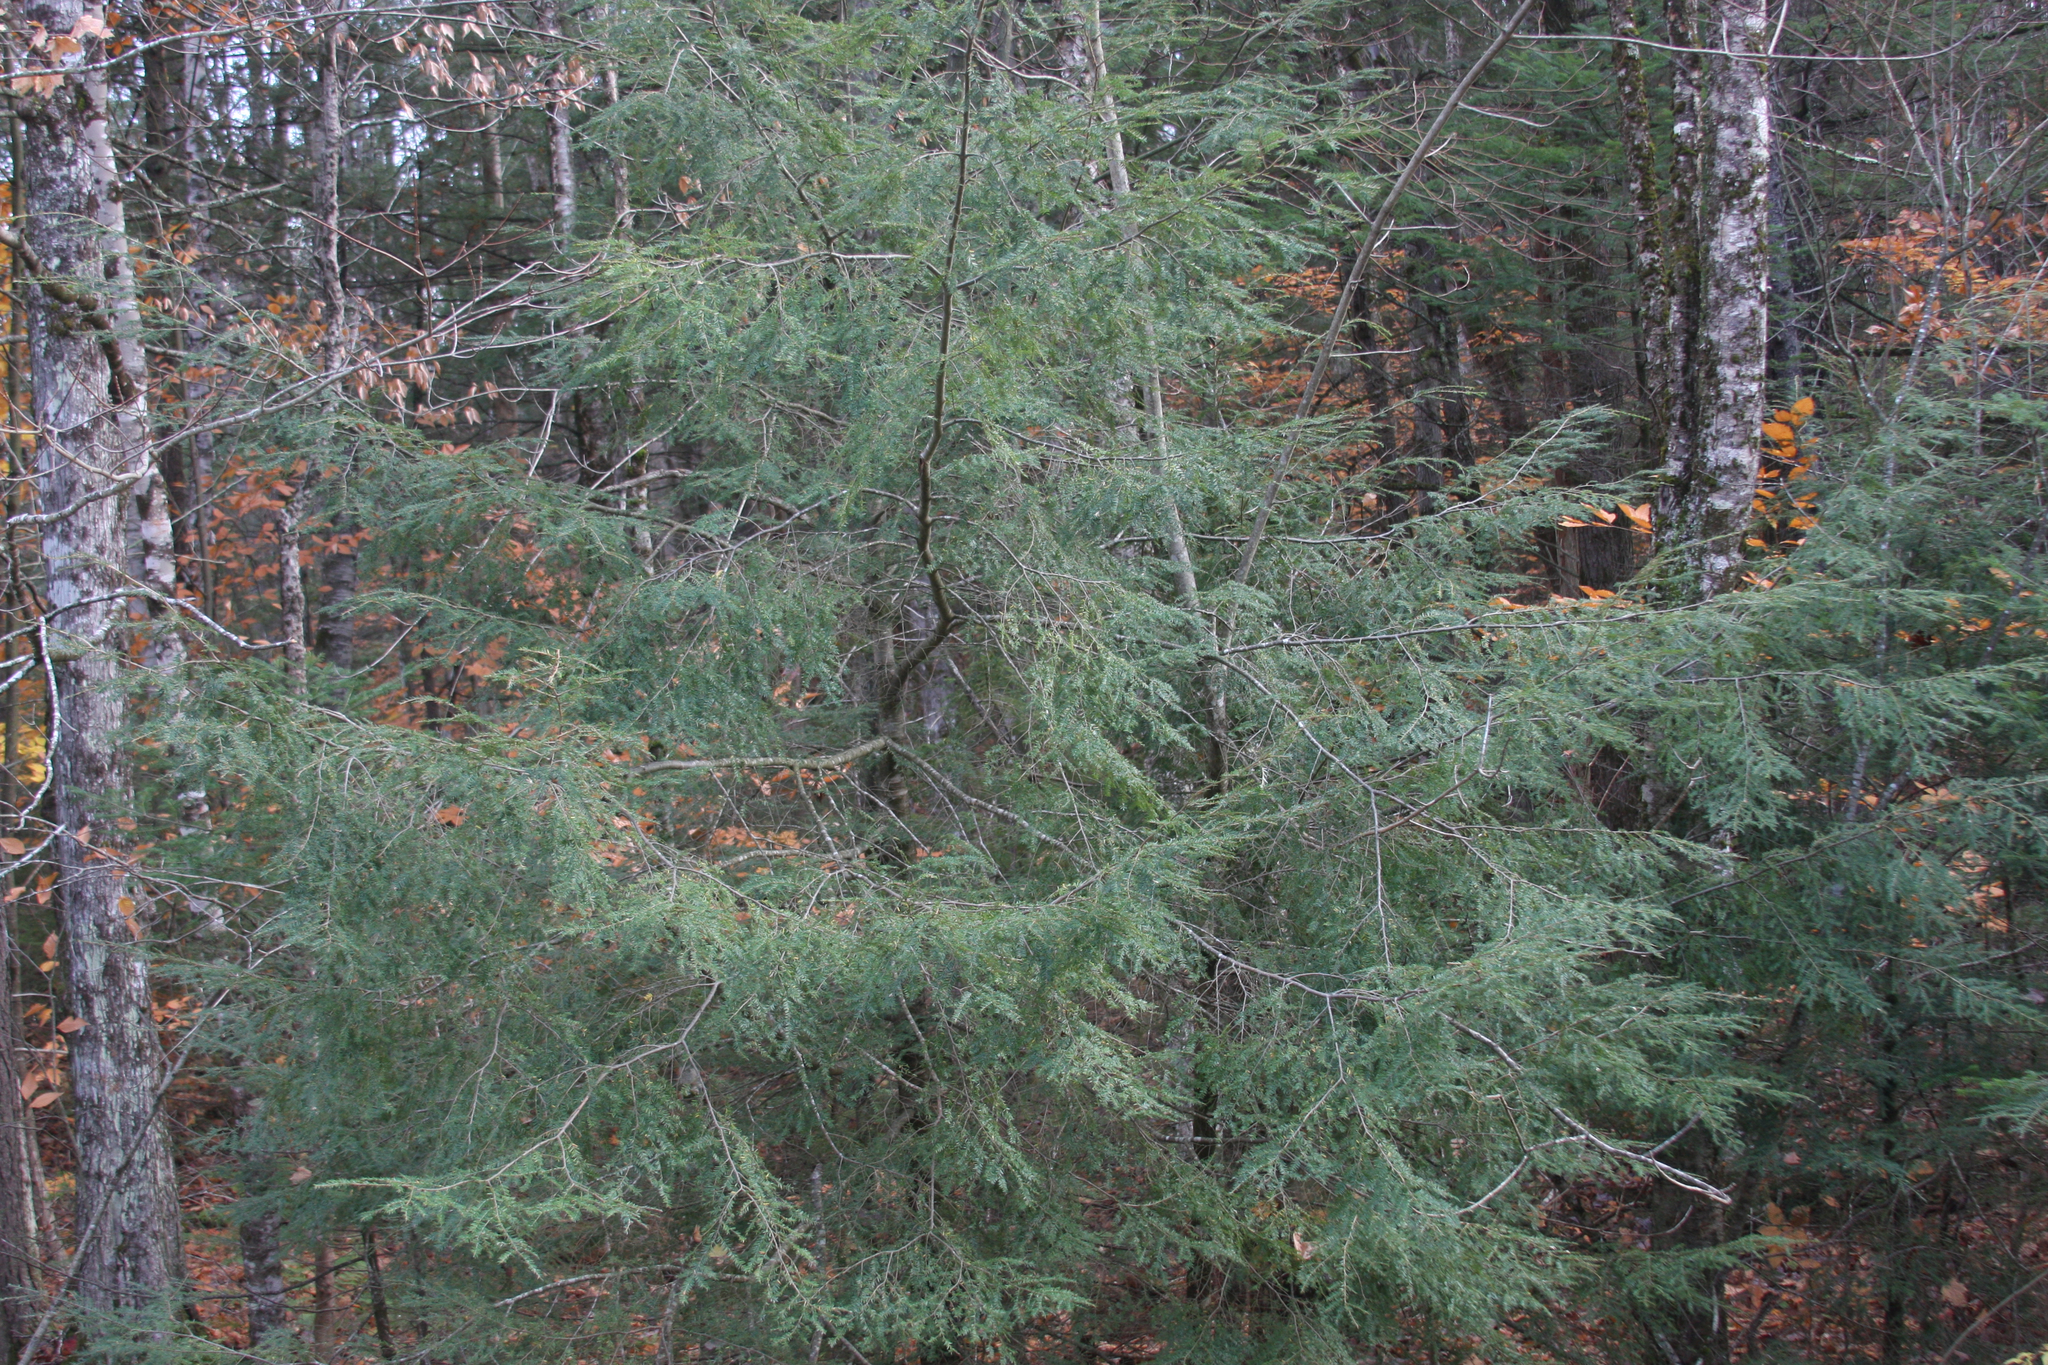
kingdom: Plantae
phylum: Tracheophyta
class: Pinopsida
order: Pinales
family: Pinaceae
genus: Tsuga
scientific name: Tsuga canadensis
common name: Eastern hemlock
